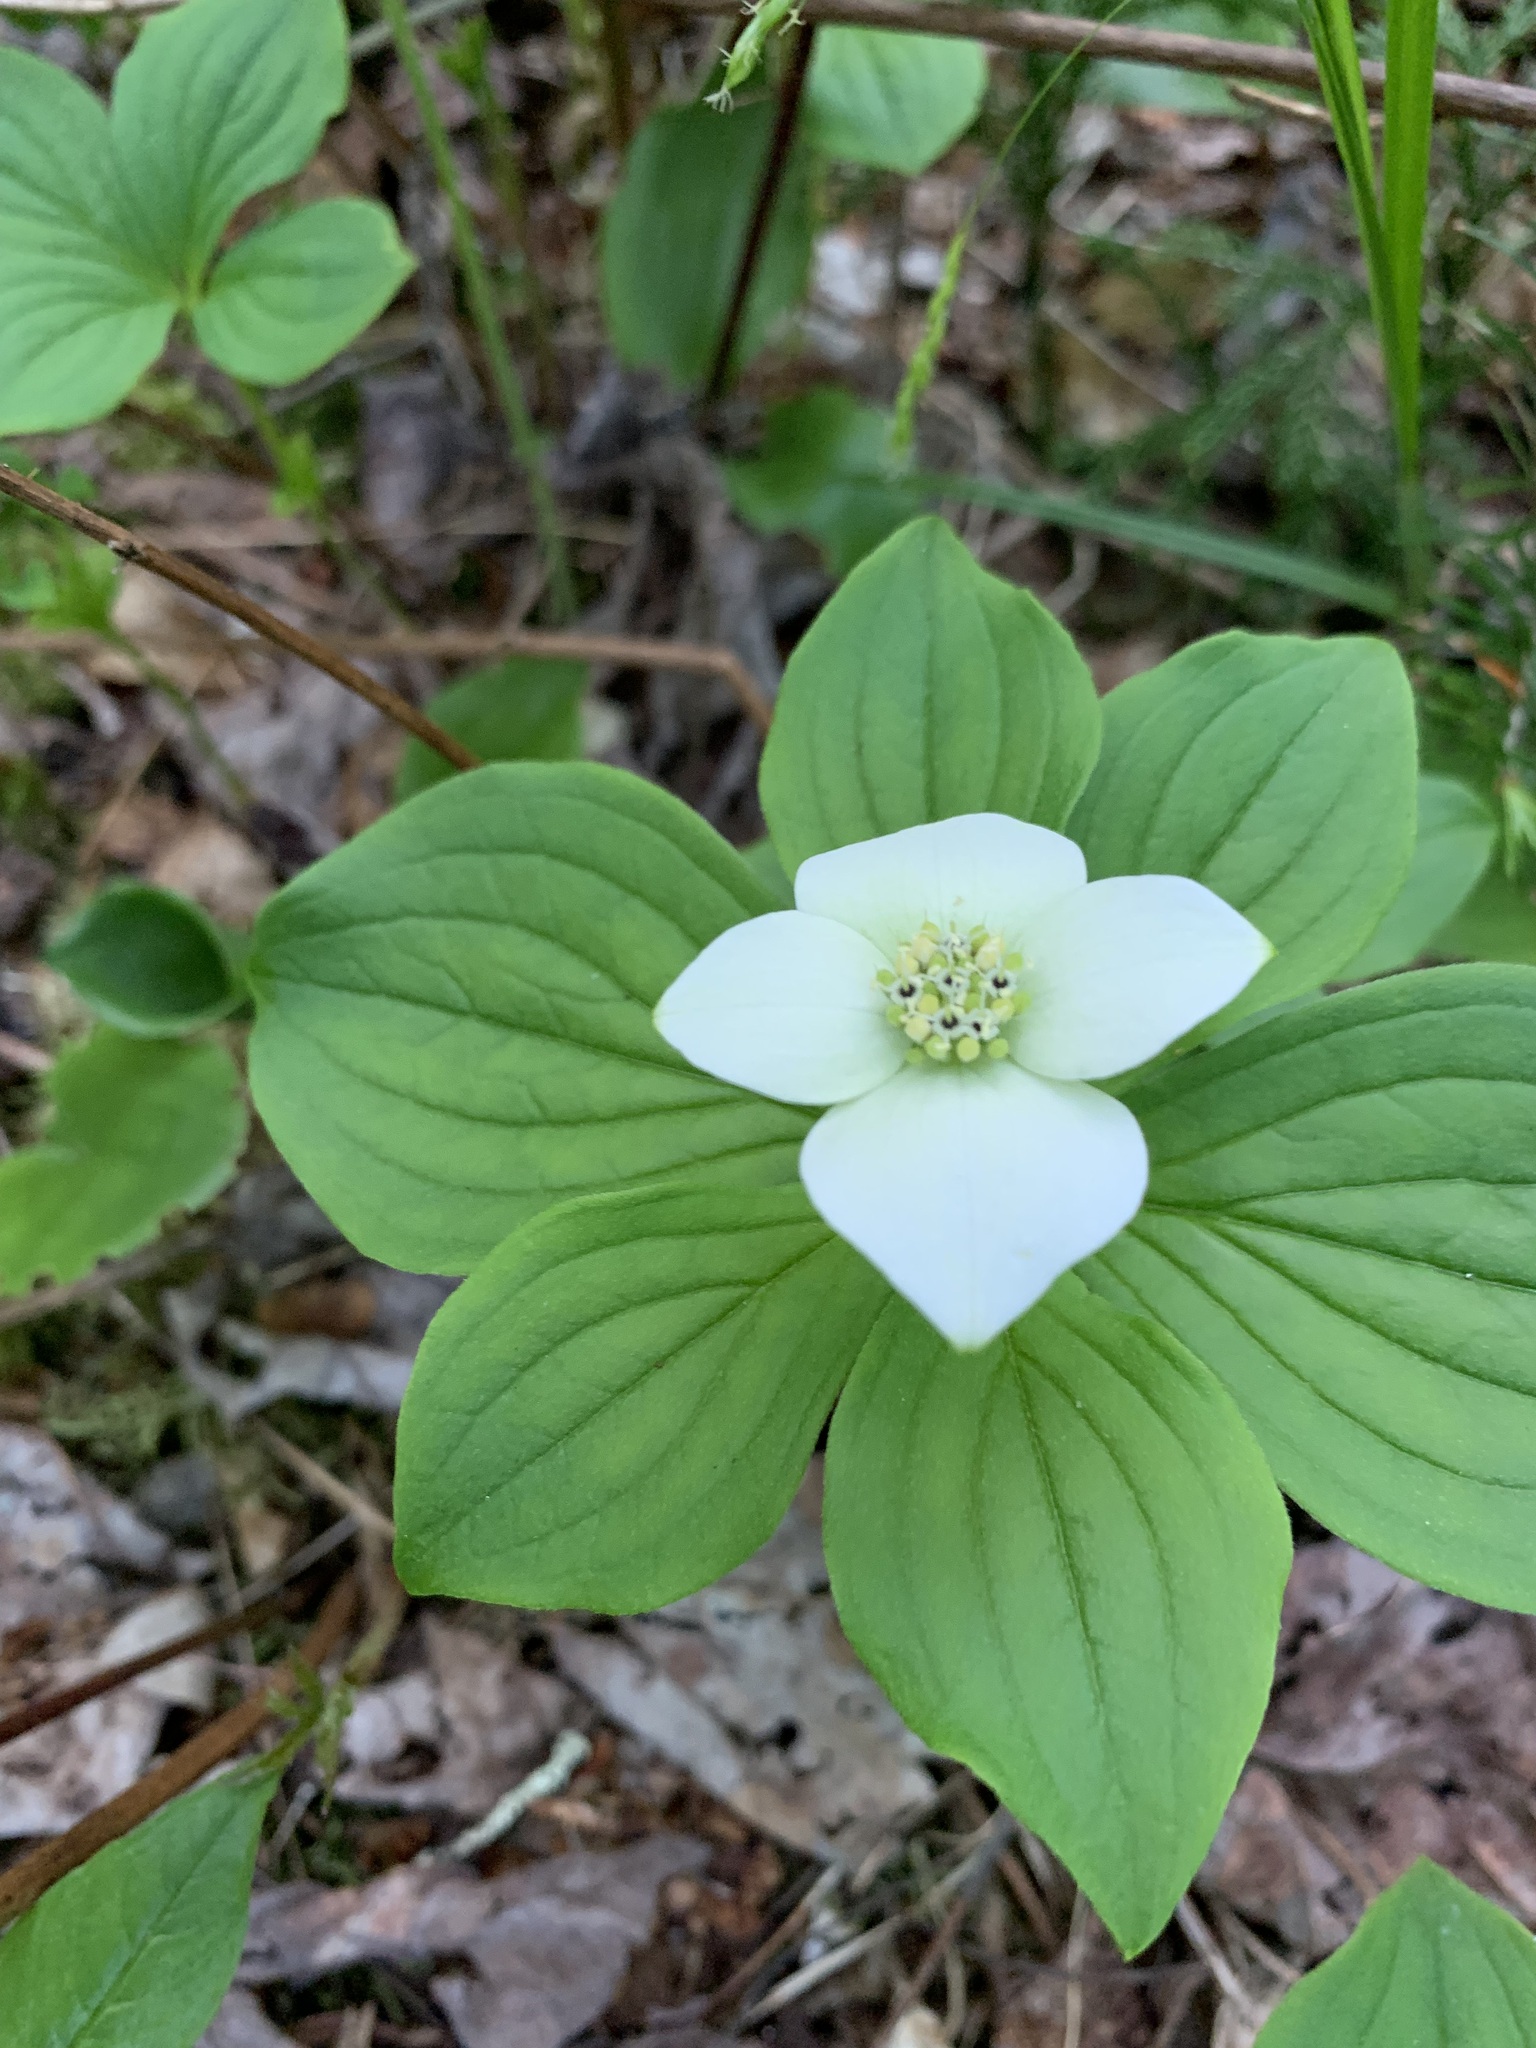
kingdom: Plantae
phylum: Tracheophyta
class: Magnoliopsida
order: Cornales
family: Cornaceae
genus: Cornus
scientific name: Cornus canadensis
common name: Creeping dogwood
